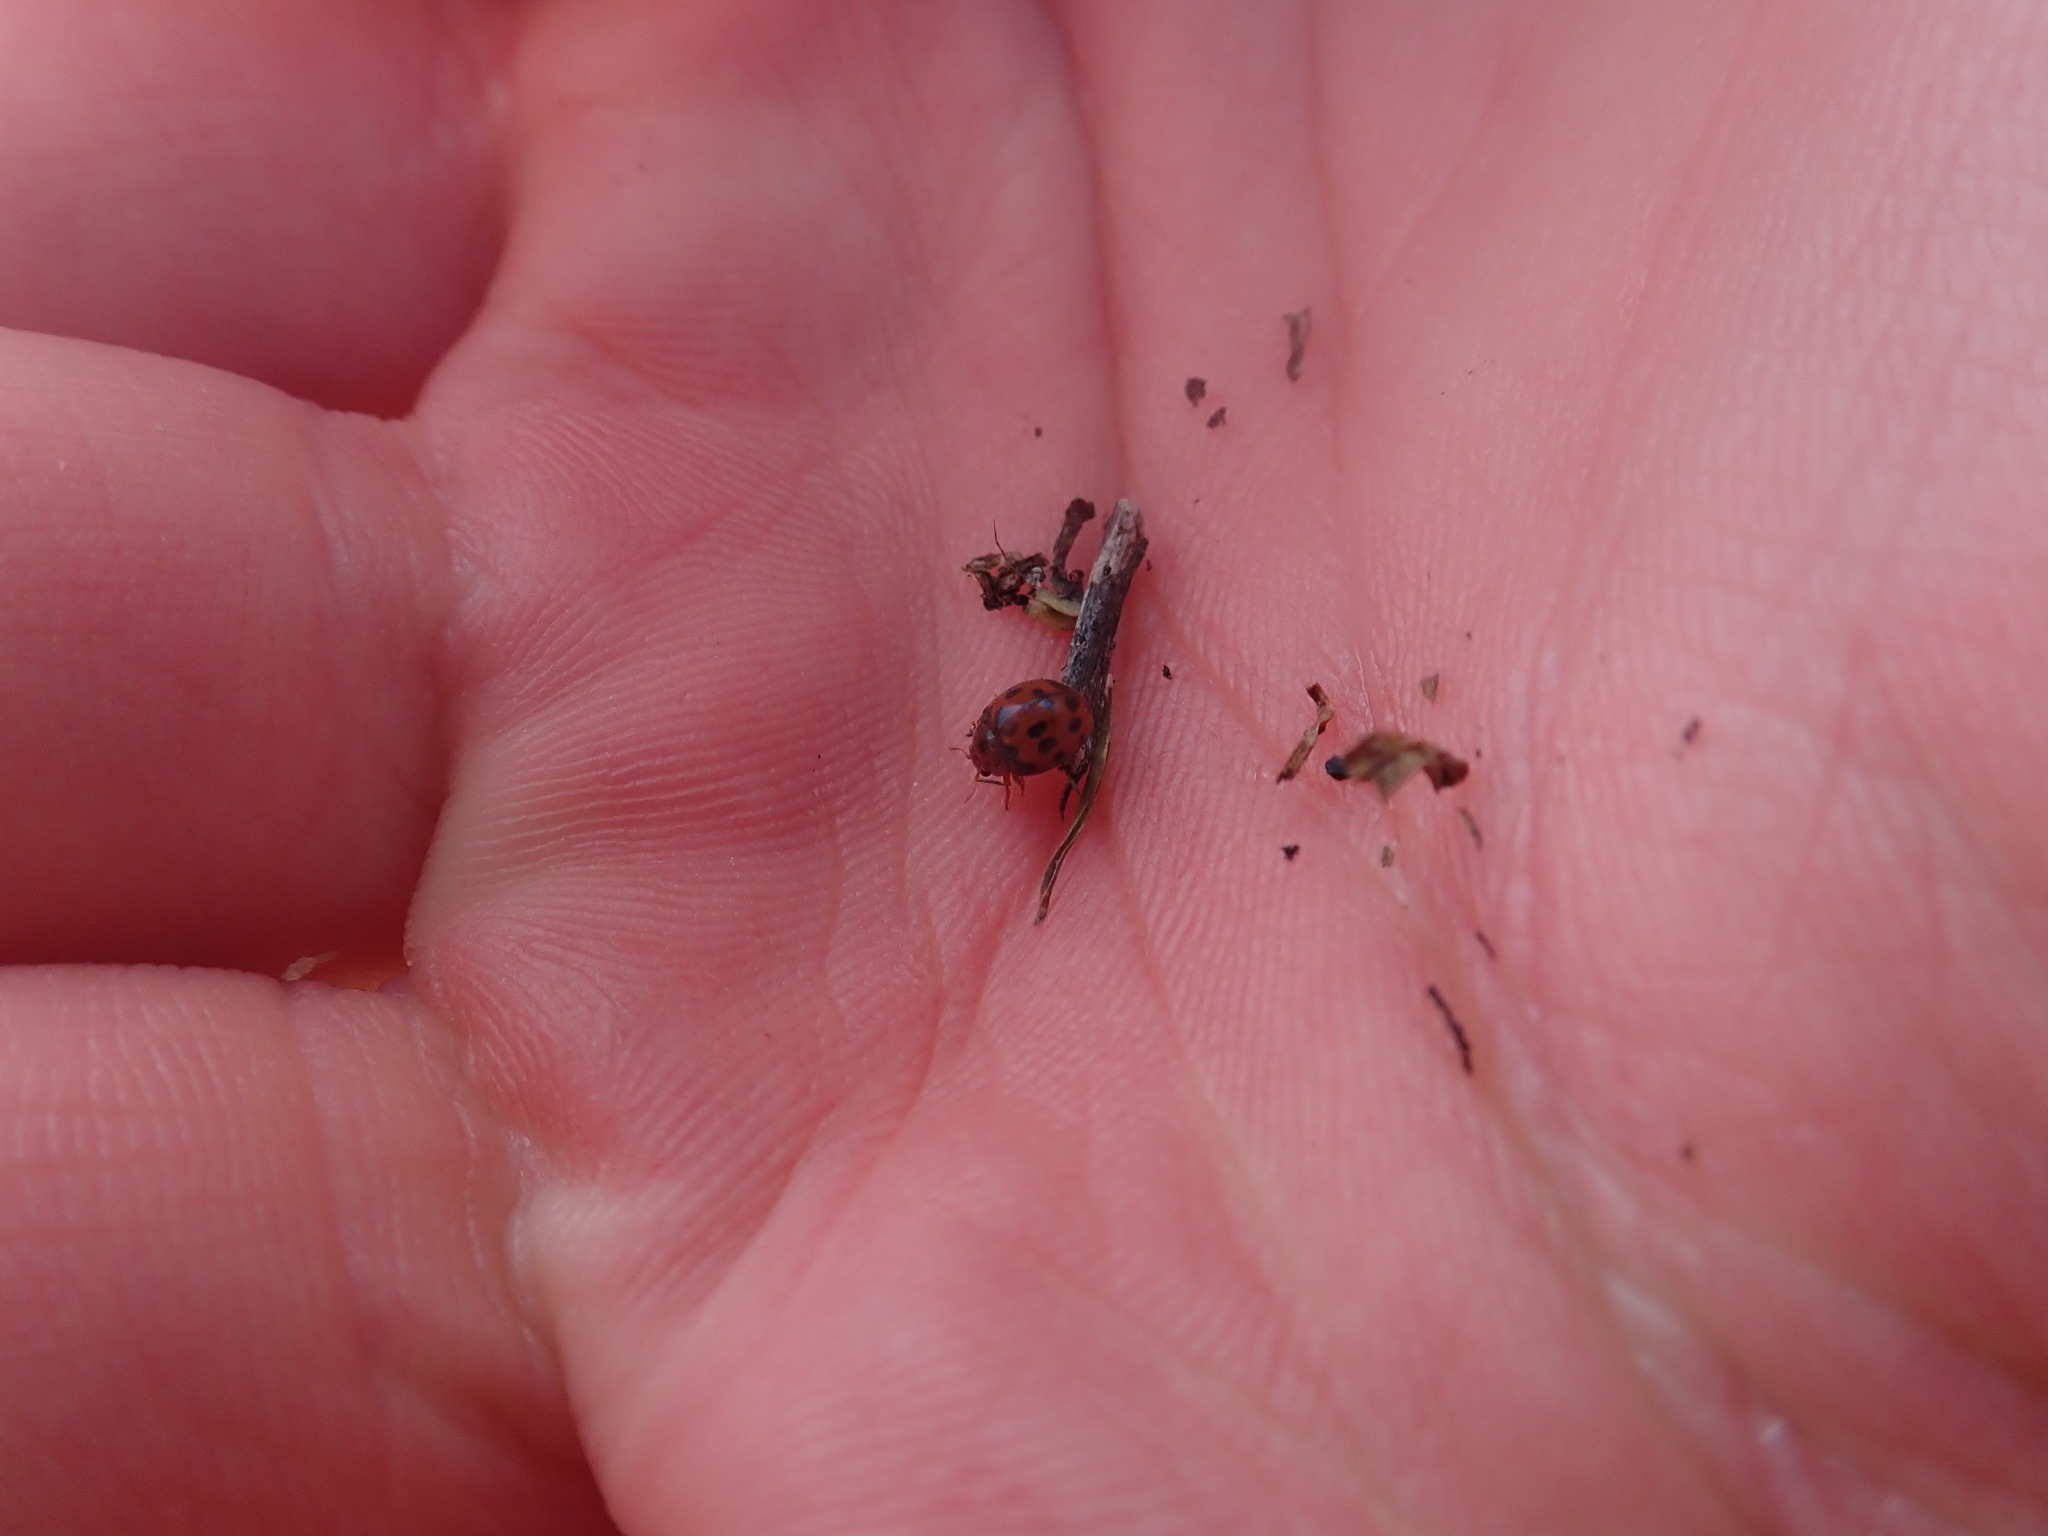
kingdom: Animalia
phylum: Arthropoda
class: Insecta
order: Coleoptera
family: Coccinellidae
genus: Subcoccinella
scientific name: Subcoccinella vigintiquatuorpunctata
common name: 24-spot ladybird
